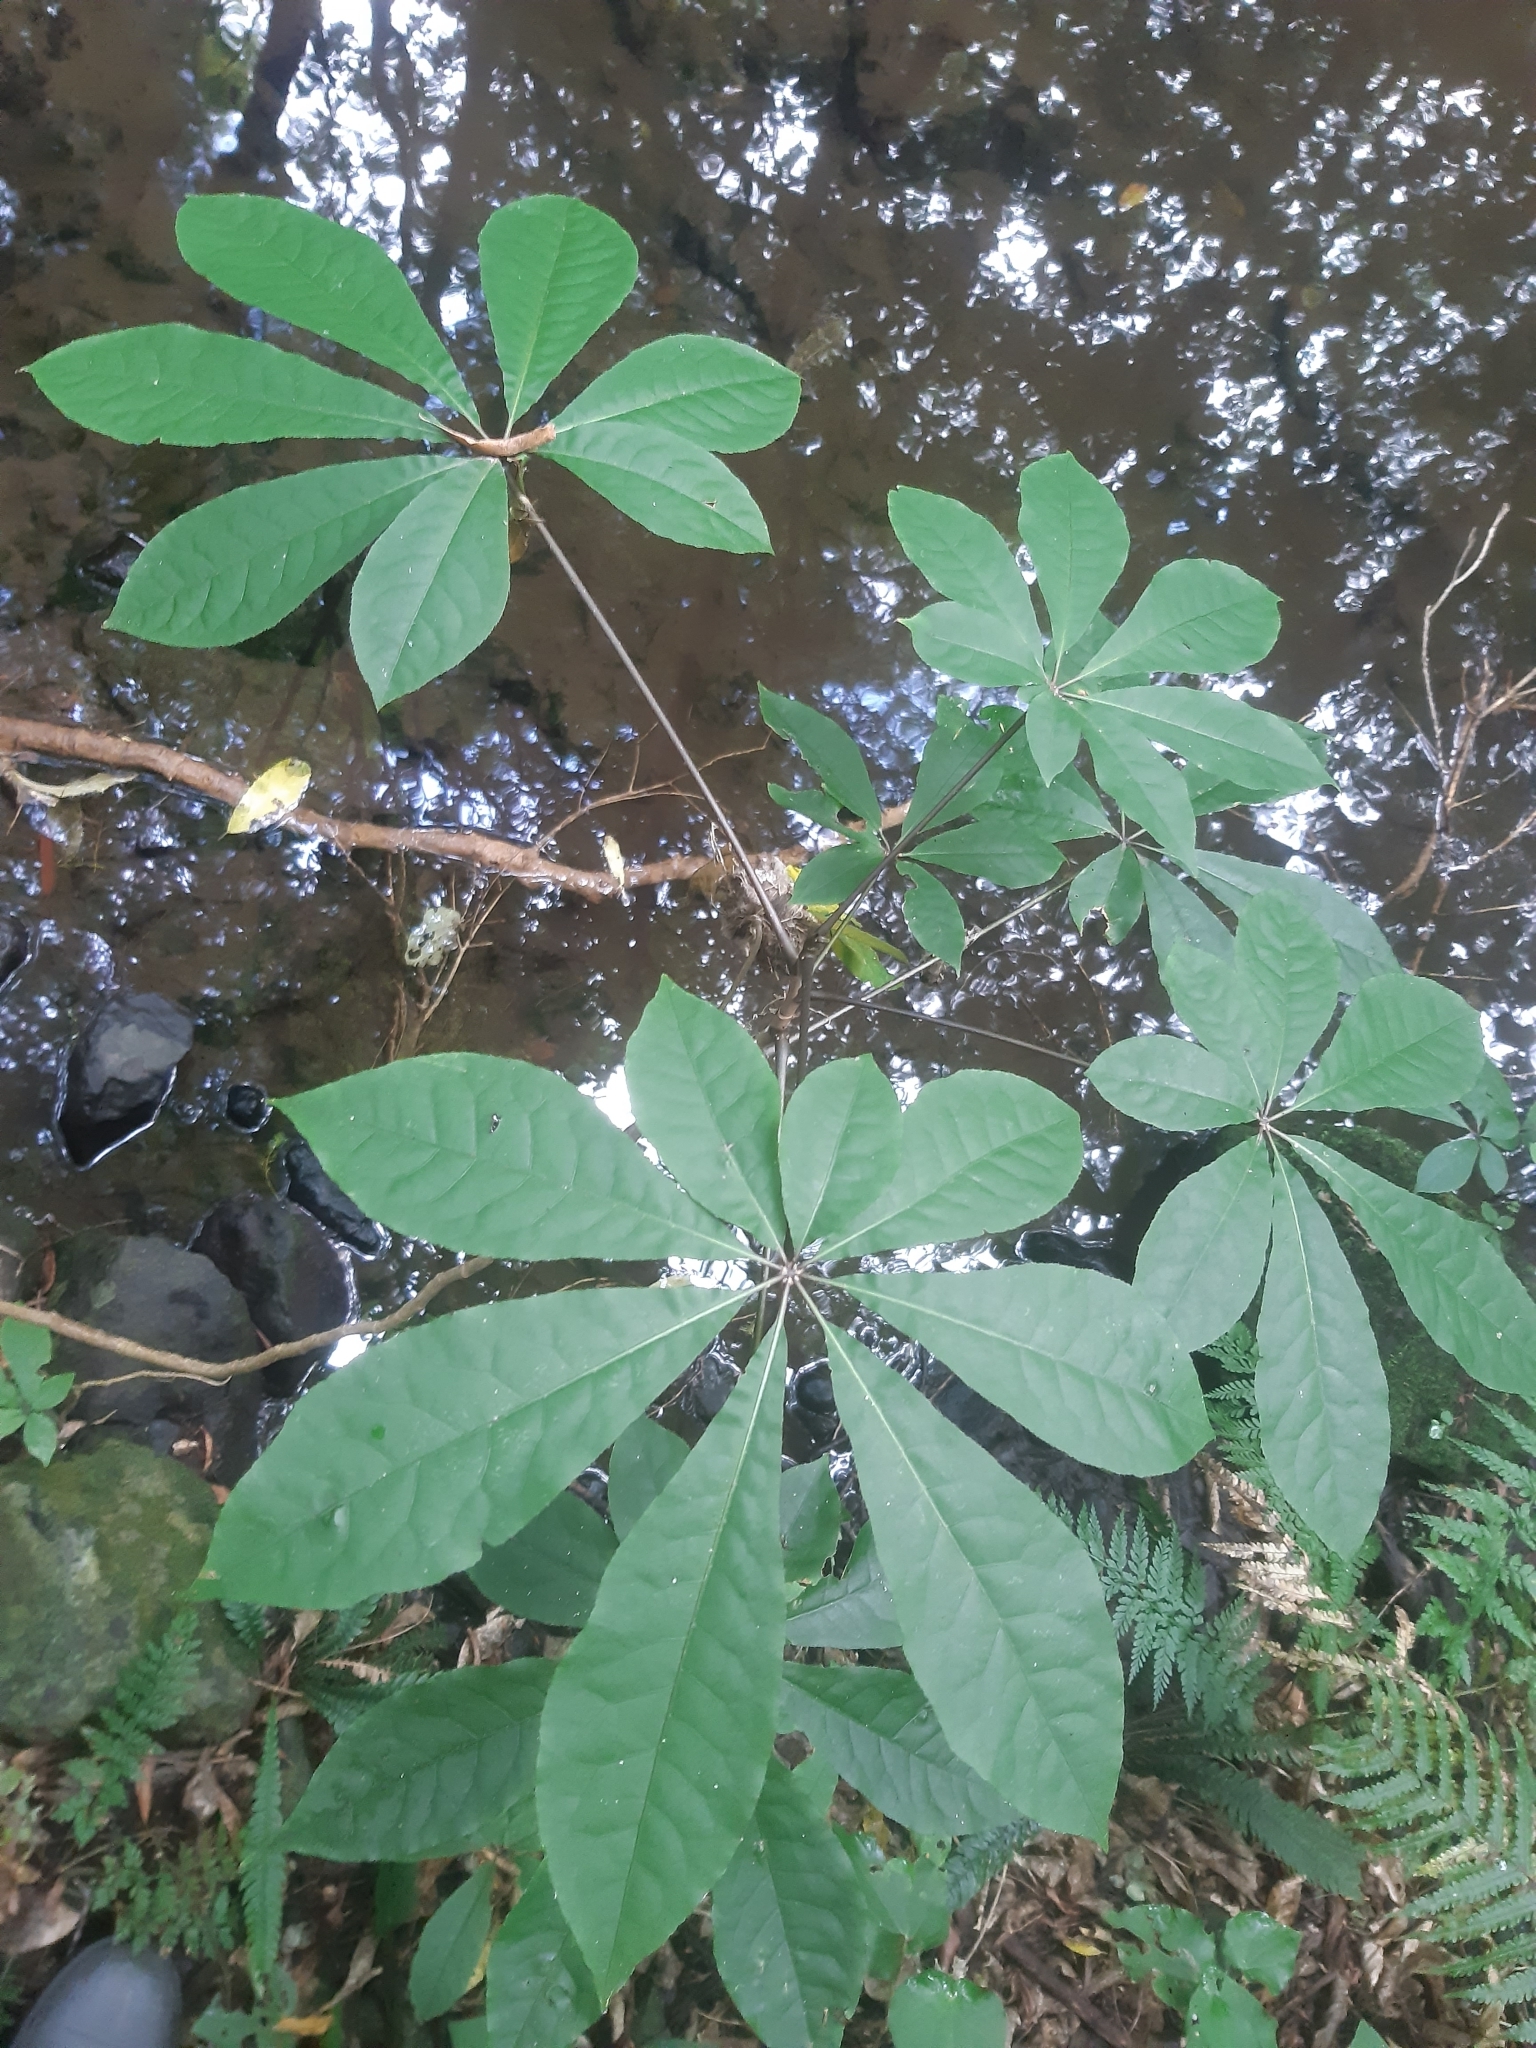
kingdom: Plantae
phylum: Tracheophyta
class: Magnoliopsida
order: Apiales
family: Araliaceae
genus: Schefflera
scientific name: Schefflera digitata
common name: Pate
